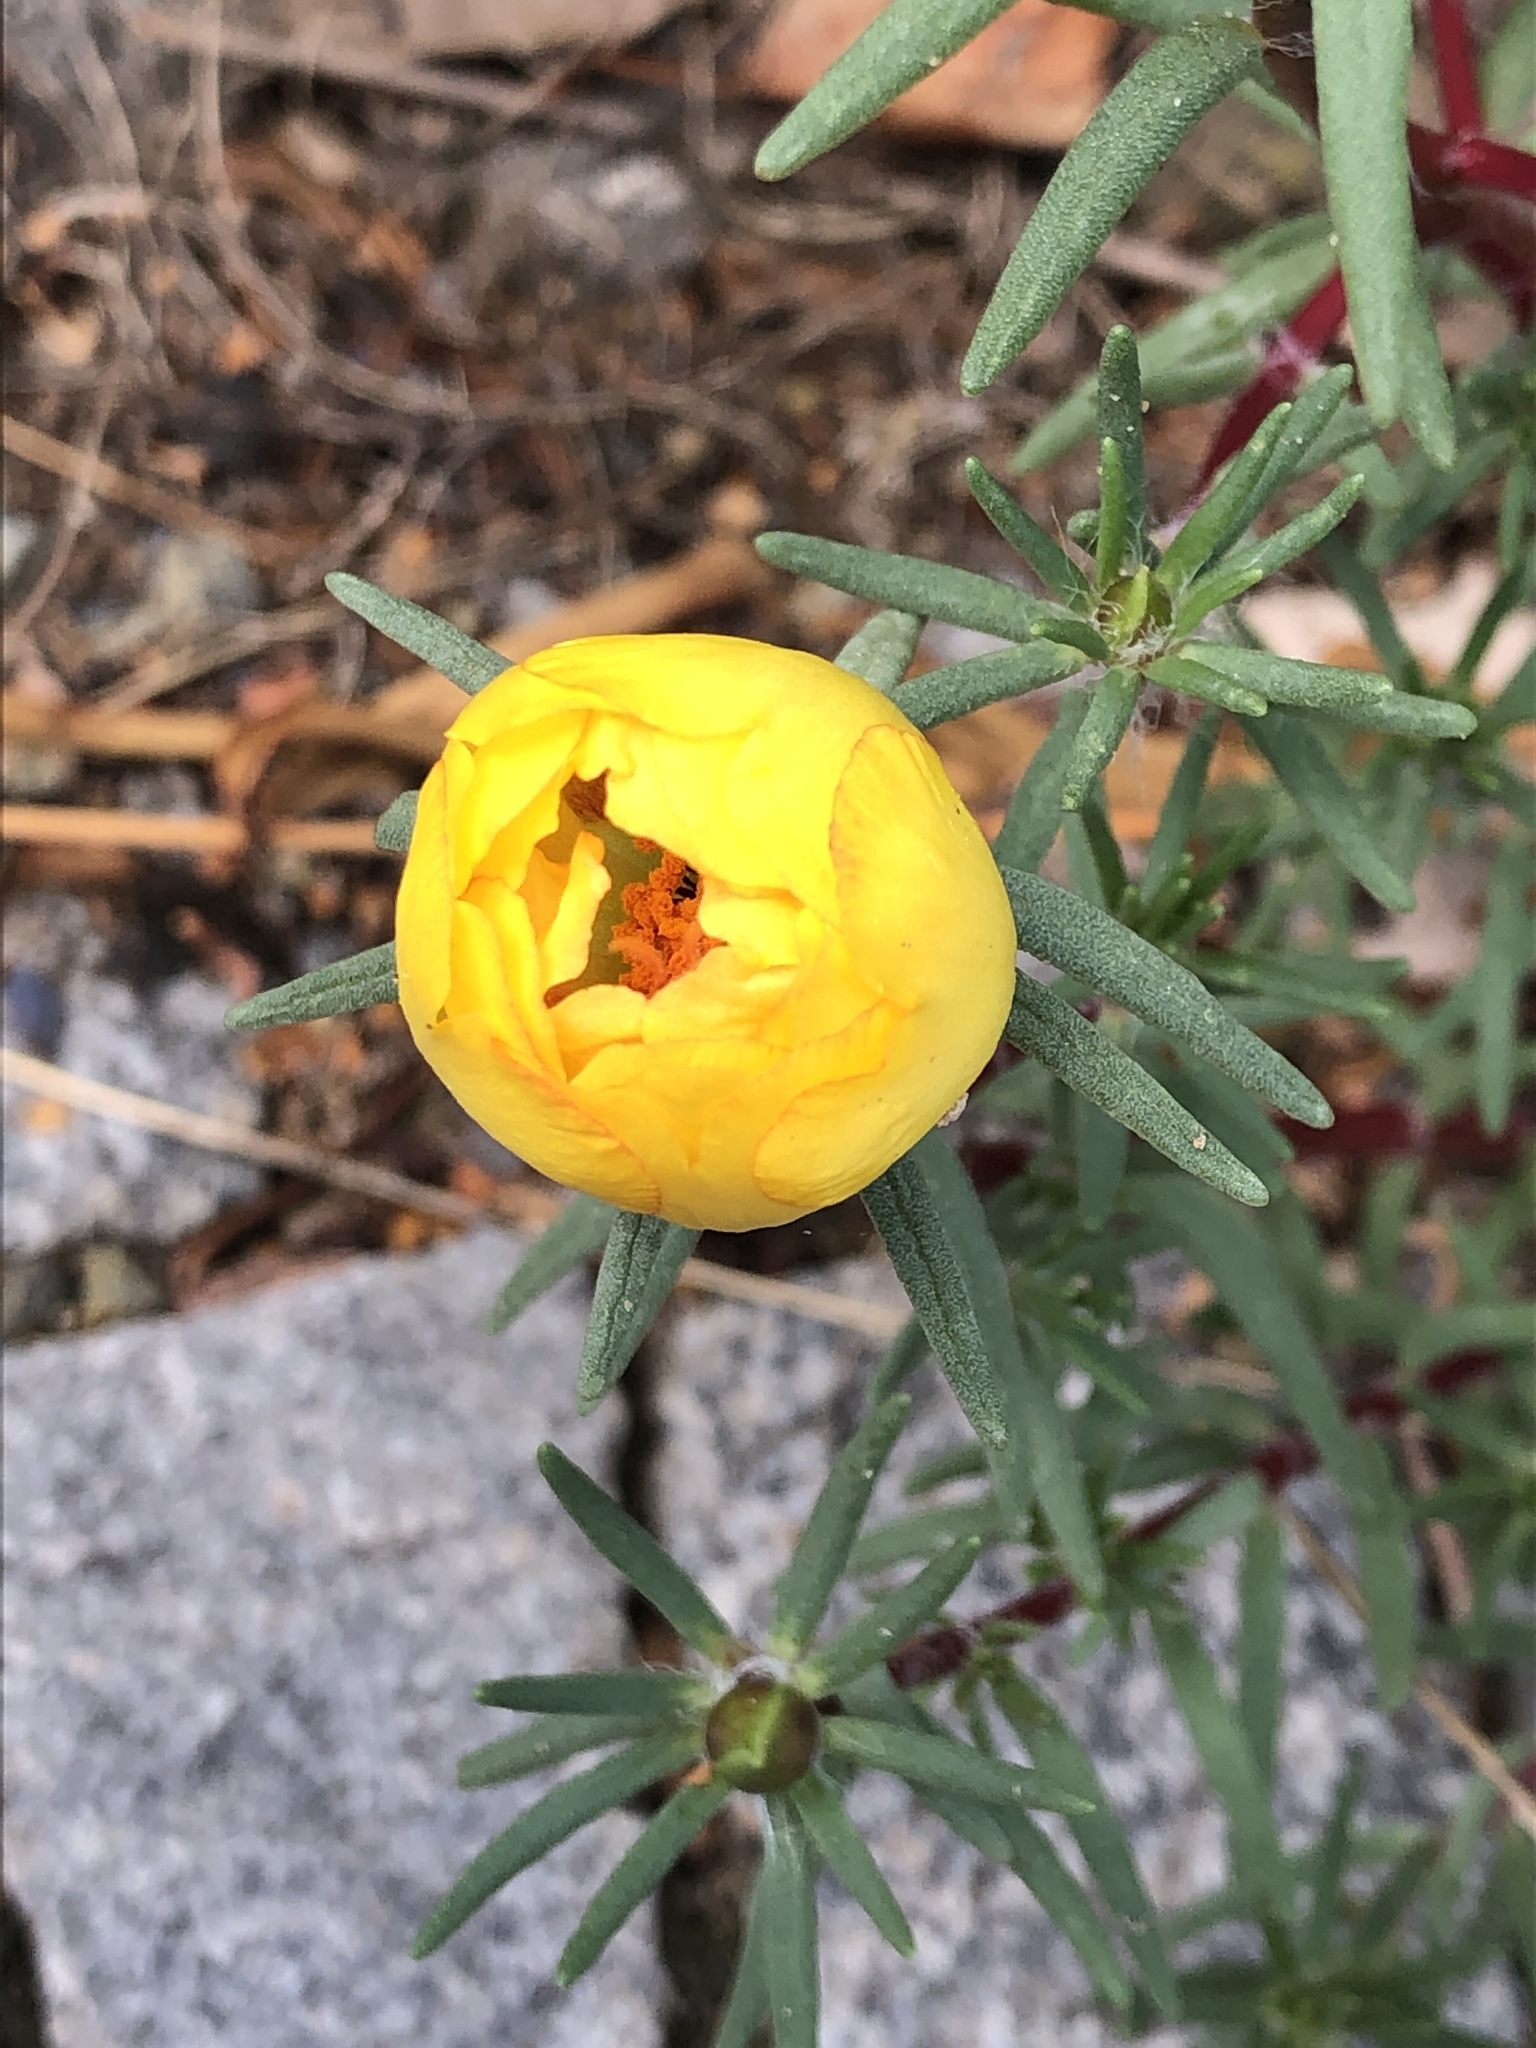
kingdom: Plantae
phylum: Tracheophyta
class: Magnoliopsida
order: Caryophyllales
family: Portulacaceae
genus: Portulaca
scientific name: Portulaca grandiflora
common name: Moss-rose
